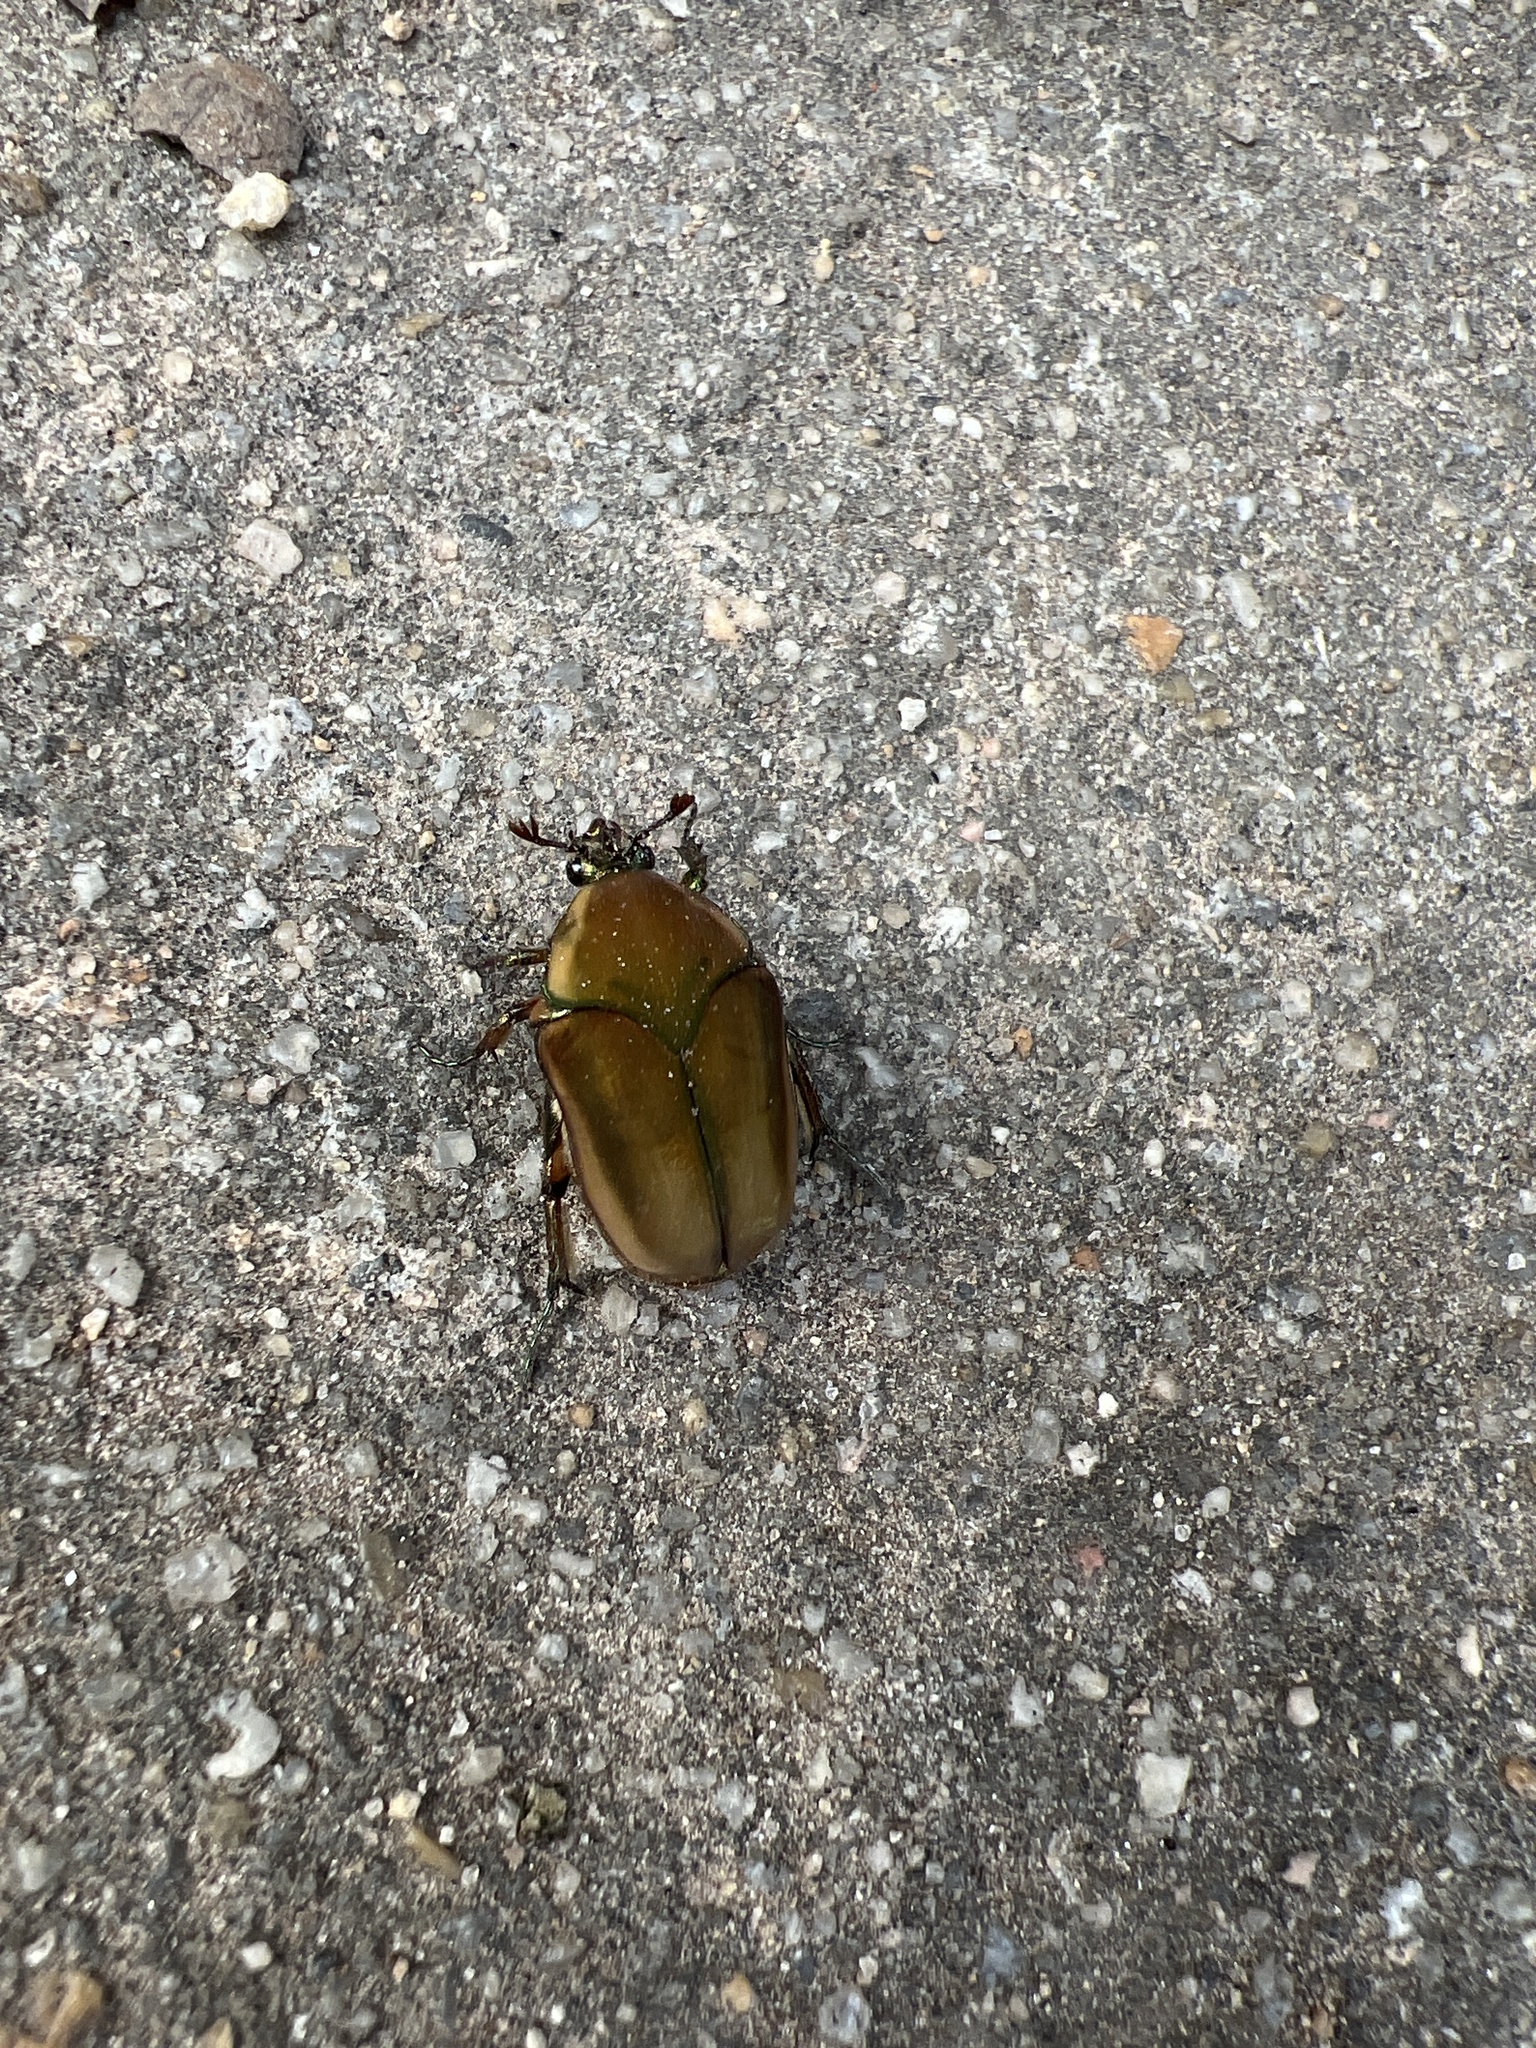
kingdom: Animalia
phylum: Arthropoda
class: Insecta
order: Coleoptera
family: Scarabaeidae
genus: Cotinis
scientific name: Cotinis nitida
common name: Common green june beetle
